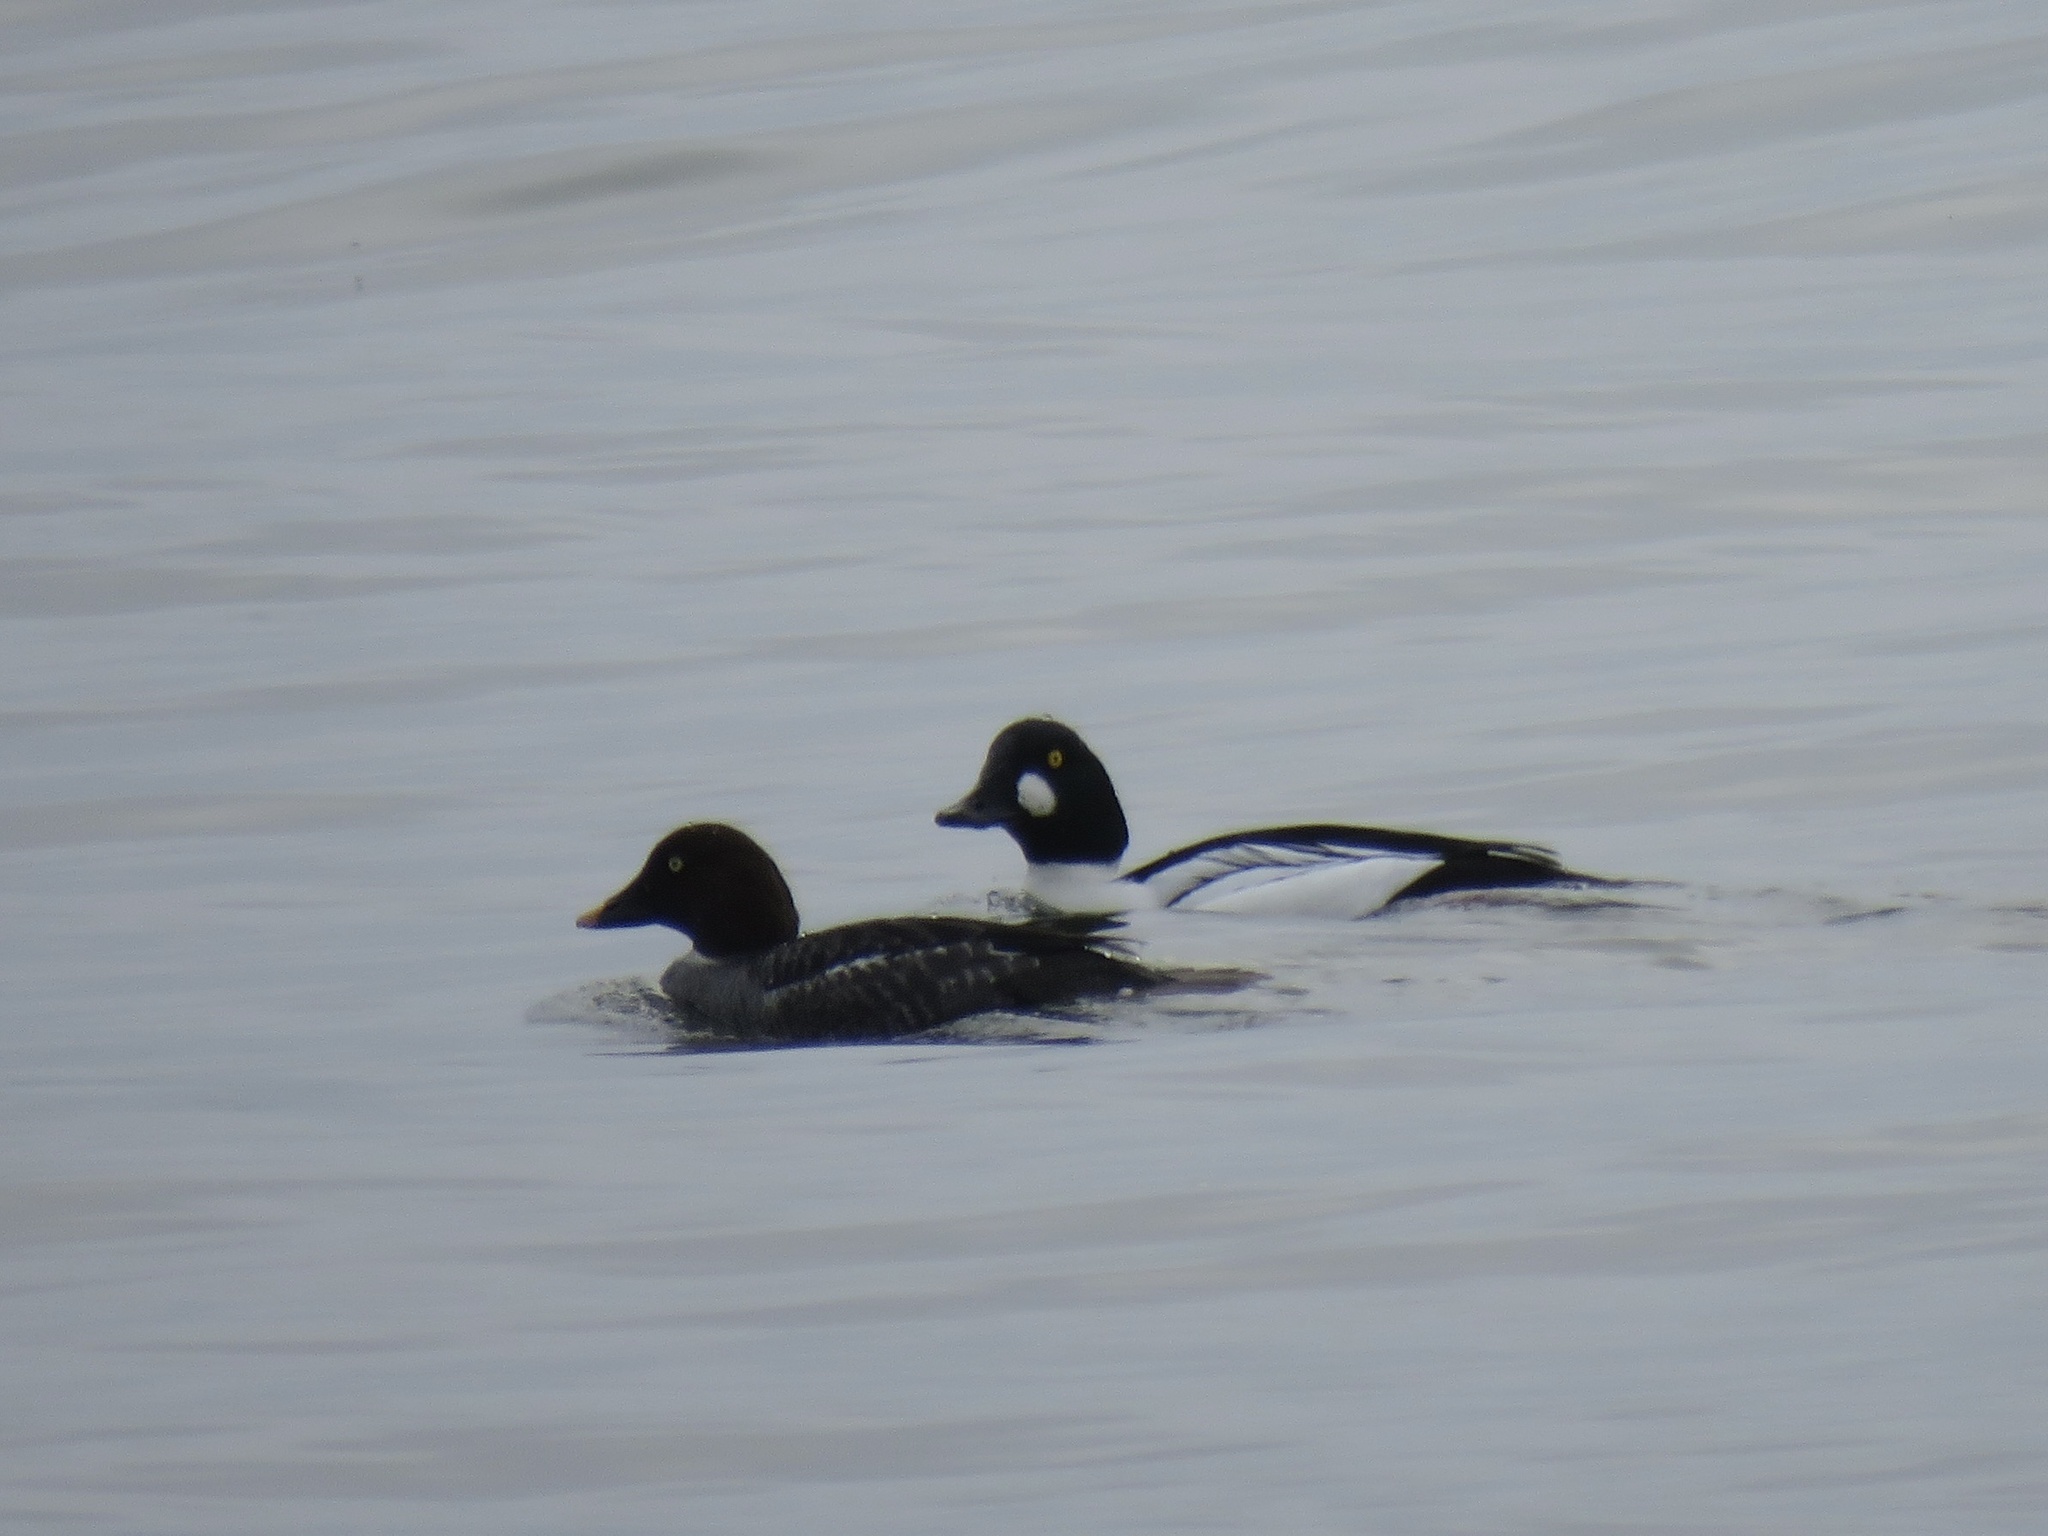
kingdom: Animalia
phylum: Chordata
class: Aves
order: Anseriformes
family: Anatidae
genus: Bucephala
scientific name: Bucephala clangula
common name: Common goldeneye
